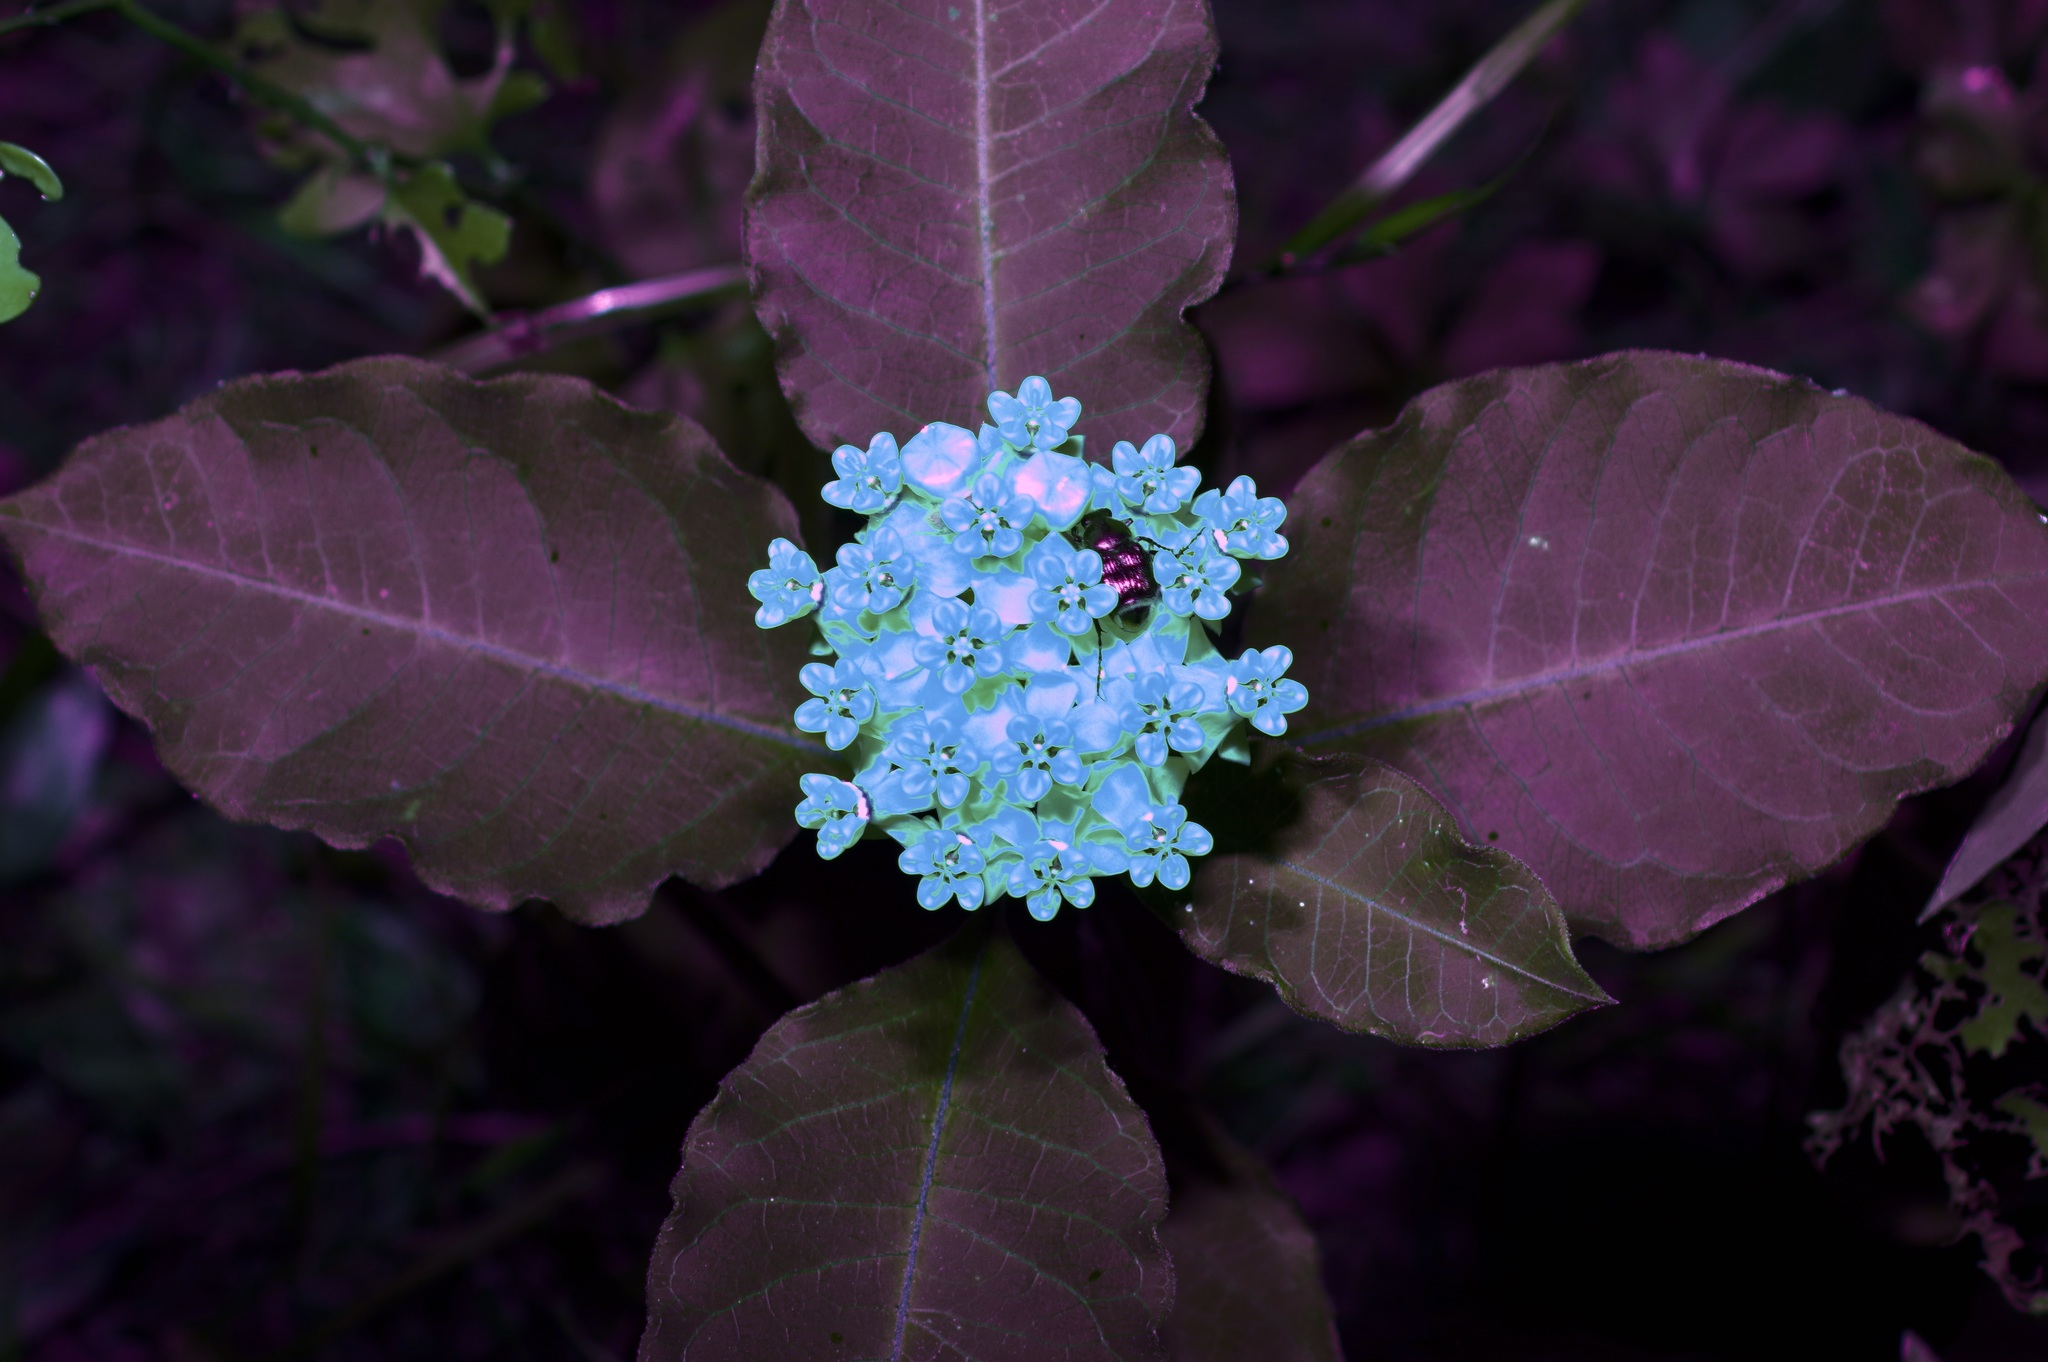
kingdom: Plantae
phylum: Tracheophyta
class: Magnoliopsida
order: Gentianales
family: Apocynaceae
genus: Asclepias
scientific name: Asclepias variegata
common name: Variegated milkweed
